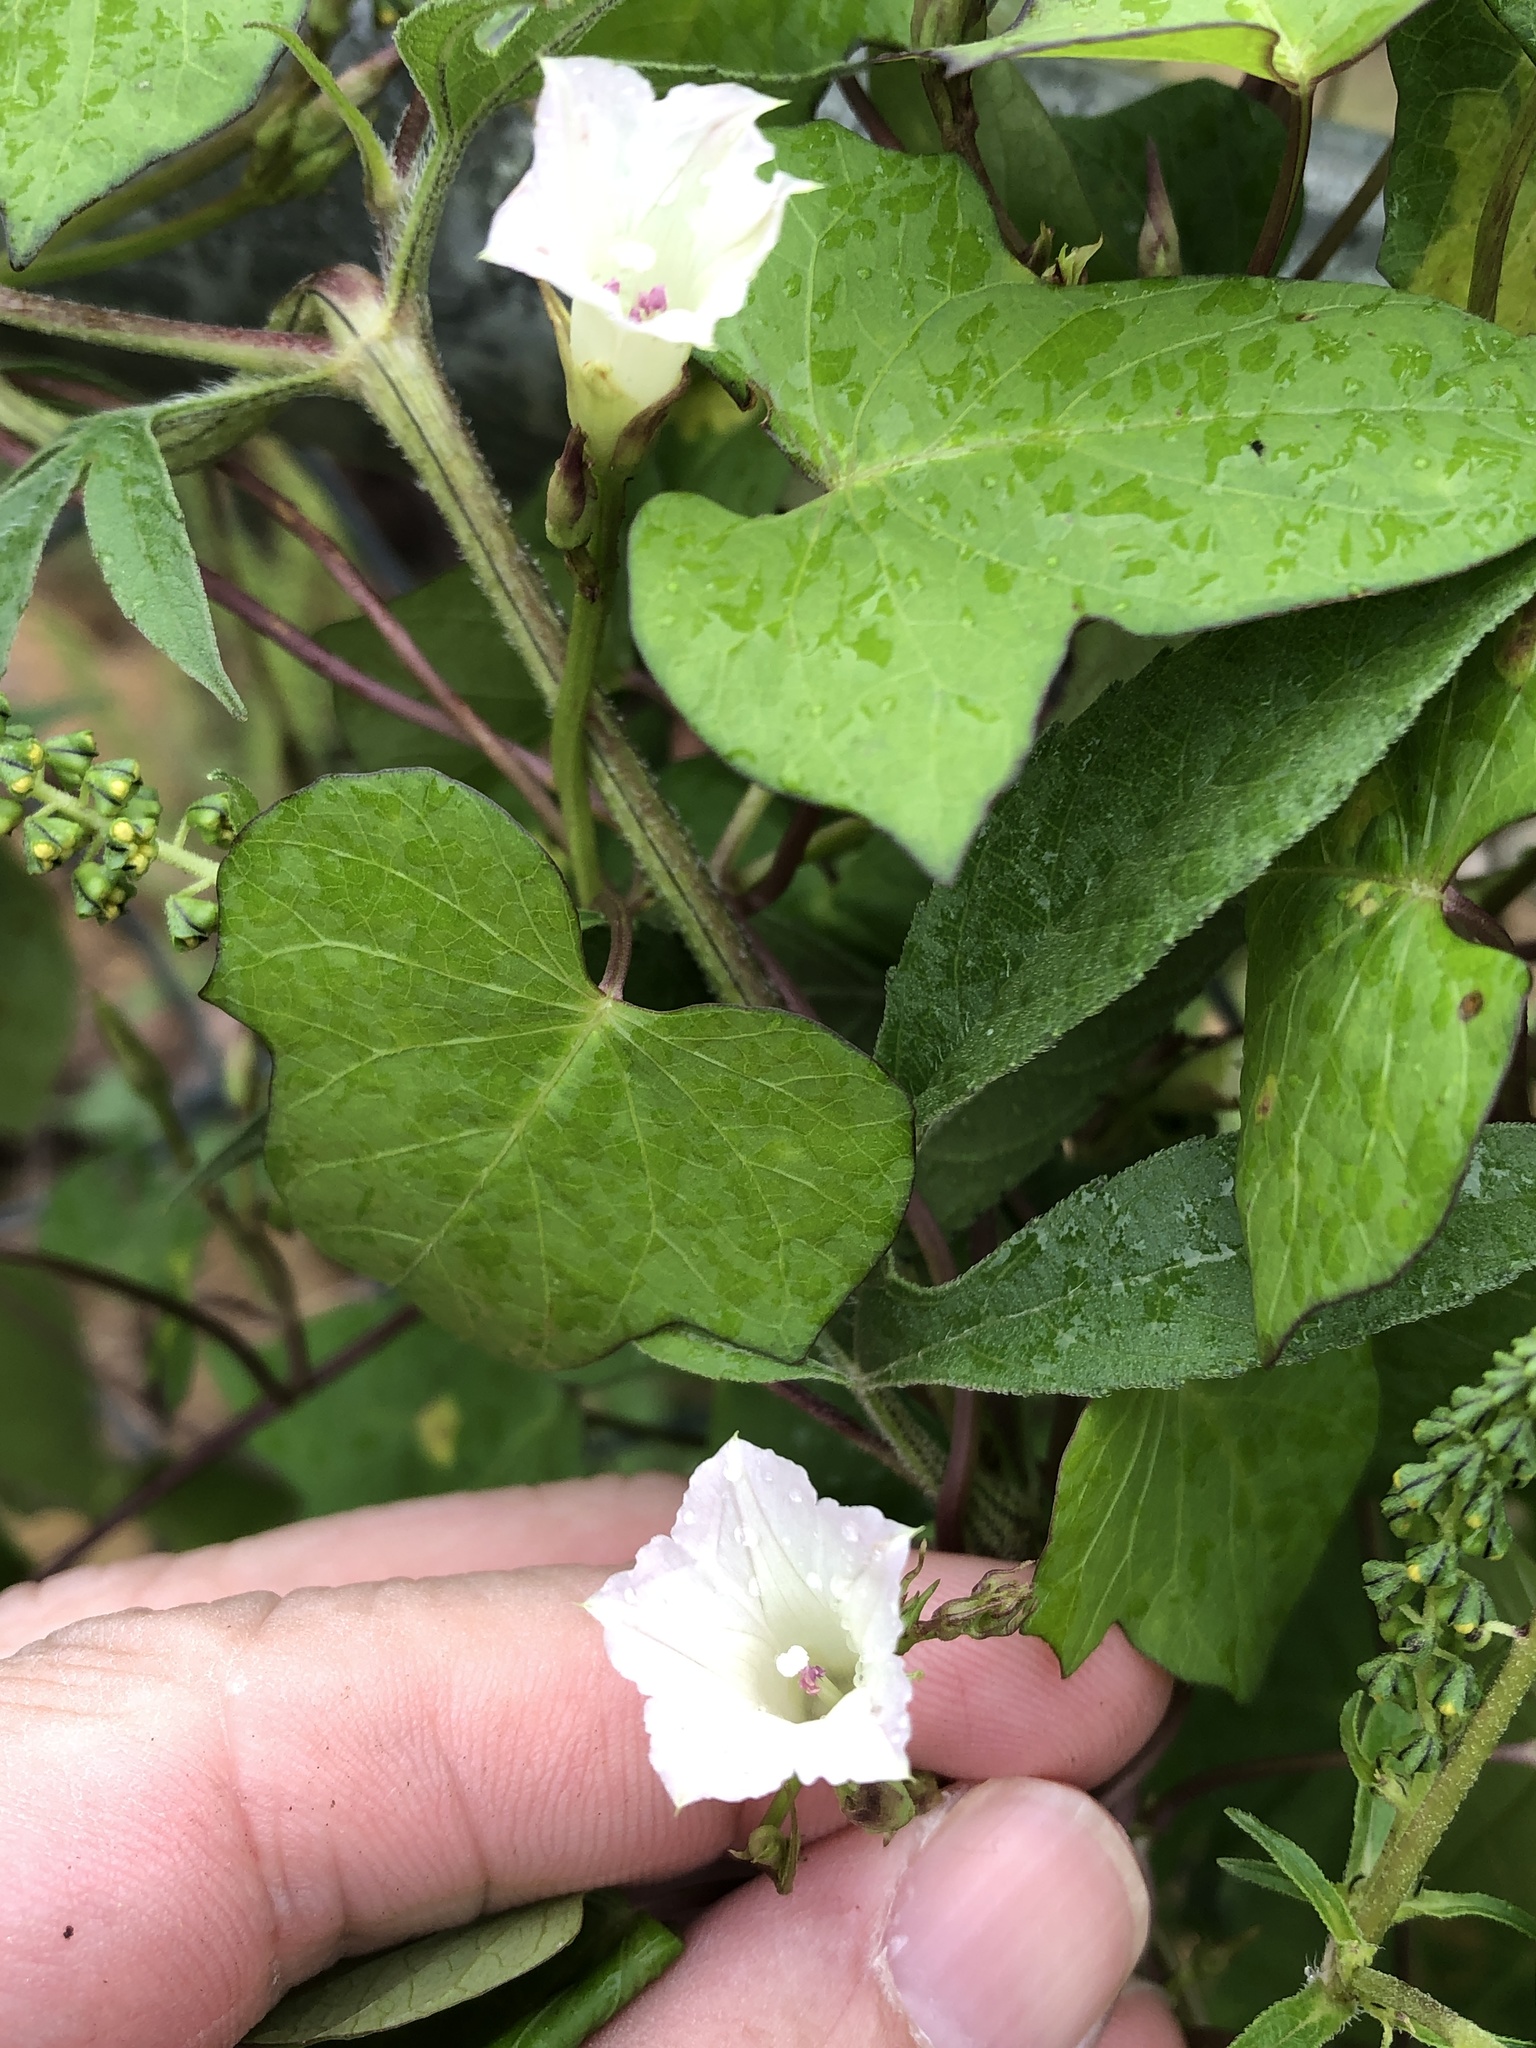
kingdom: Plantae
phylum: Tracheophyta
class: Magnoliopsida
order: Solanales
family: Convolvulaceae
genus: Ipomoea
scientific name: Ipomoea lacunosa
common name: White morning-glory
